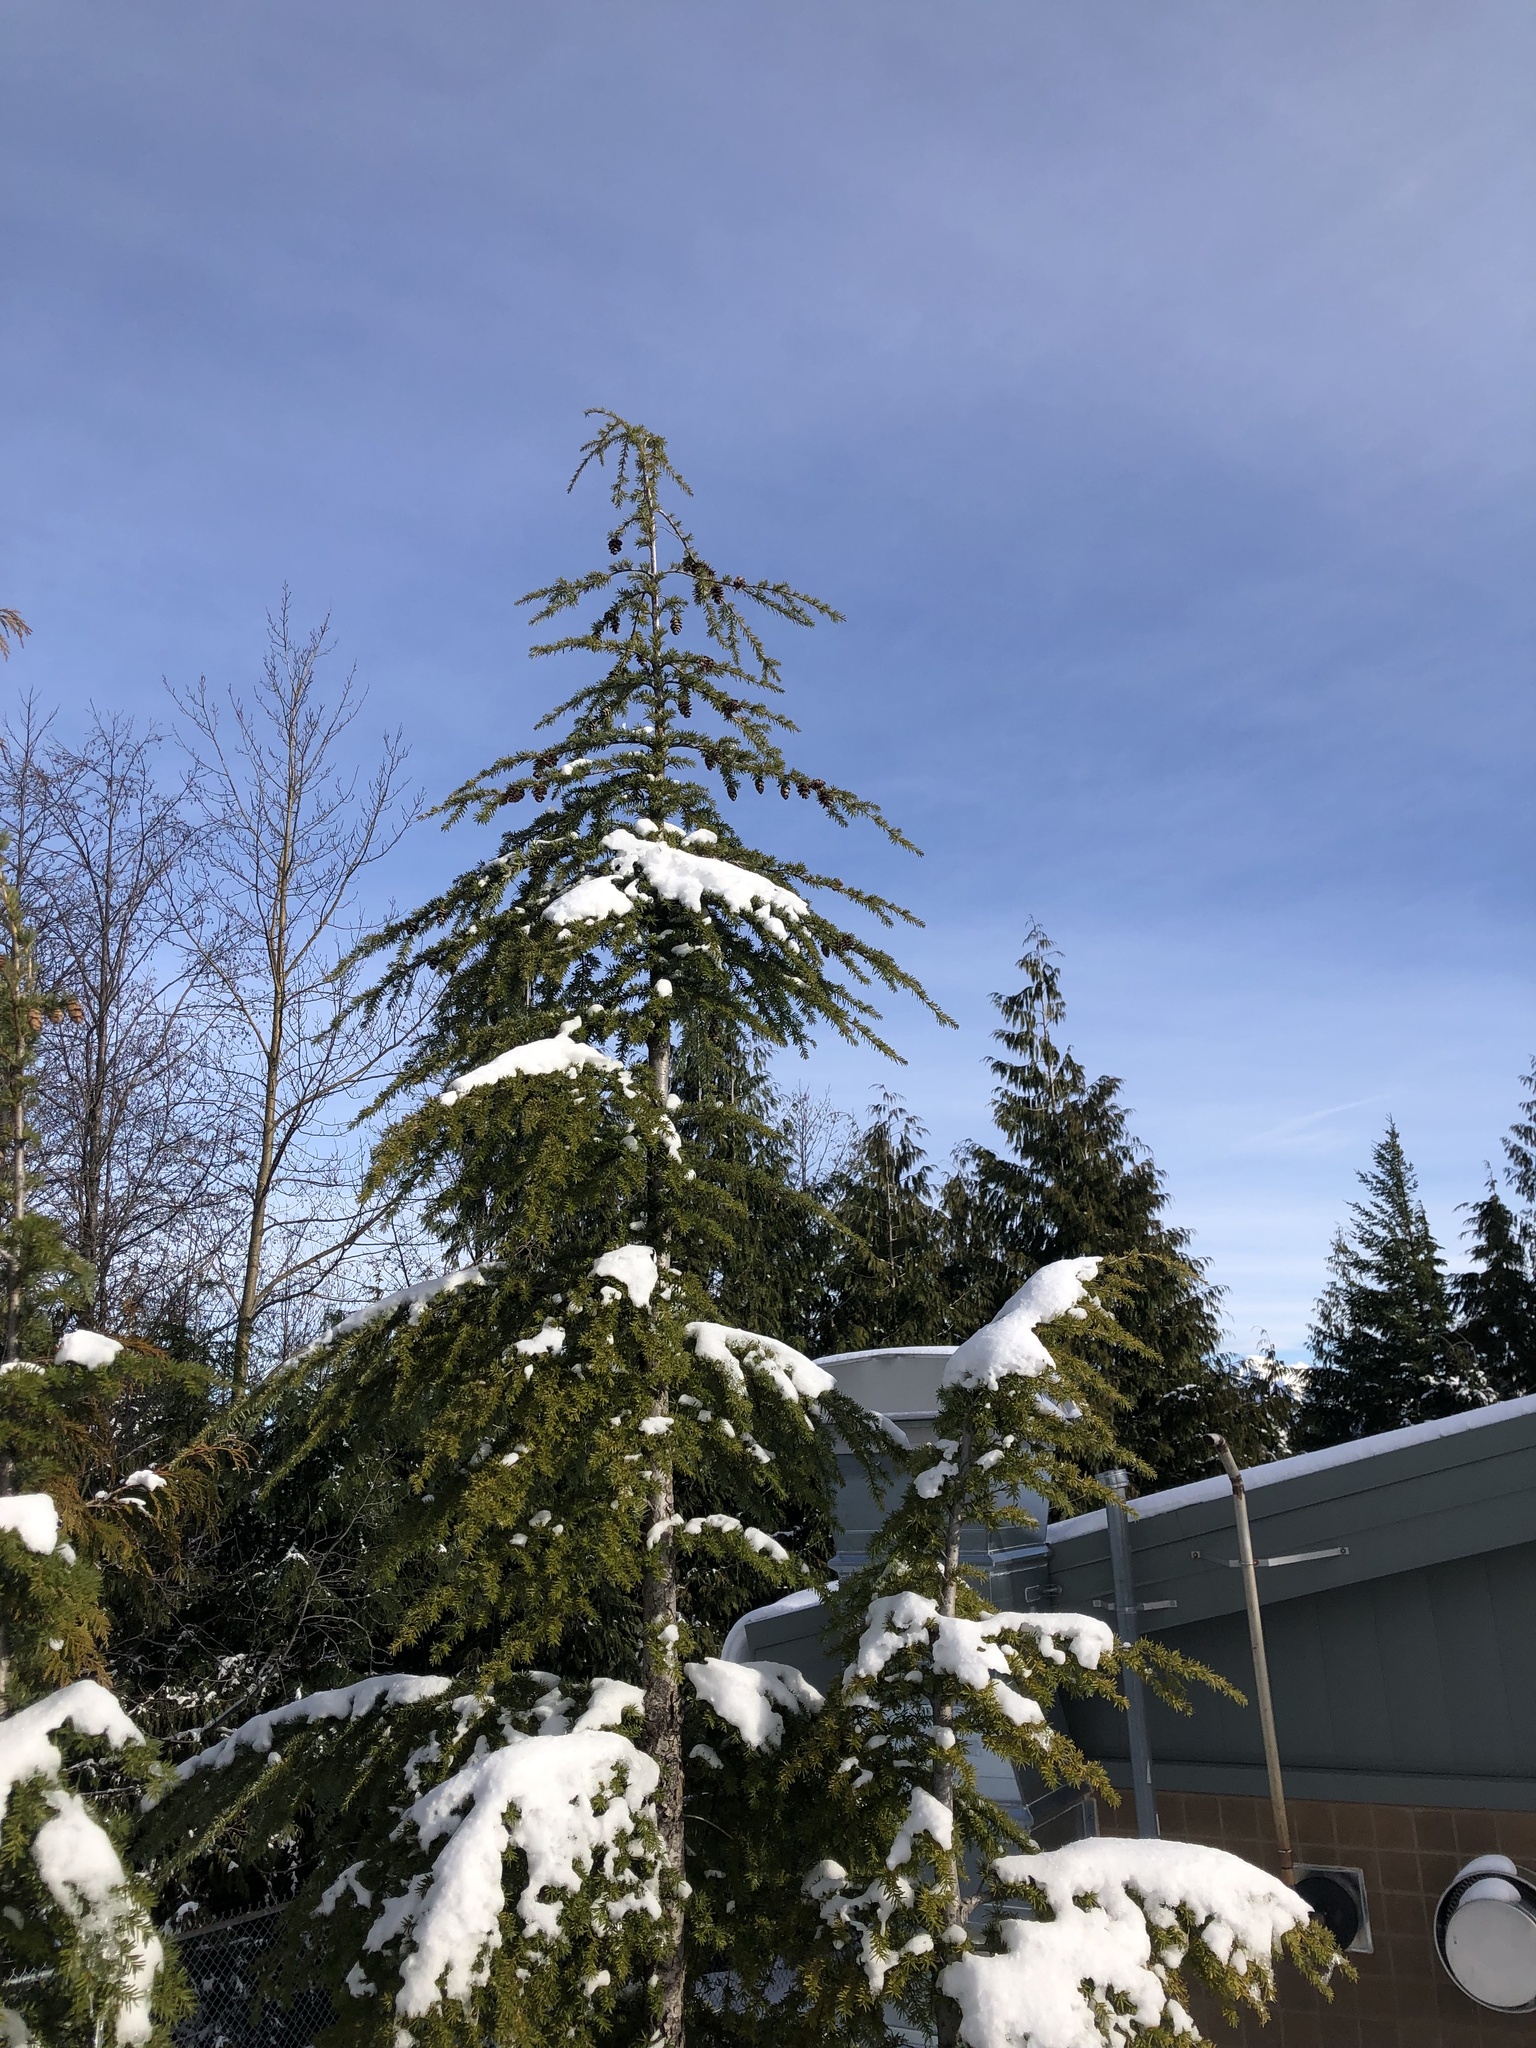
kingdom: Plantae
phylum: Tracheophyta
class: Pinopsida
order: Pinales
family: Pinaceae
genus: Tsuga
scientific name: Tsuga heterophylla
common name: Western hemlock
